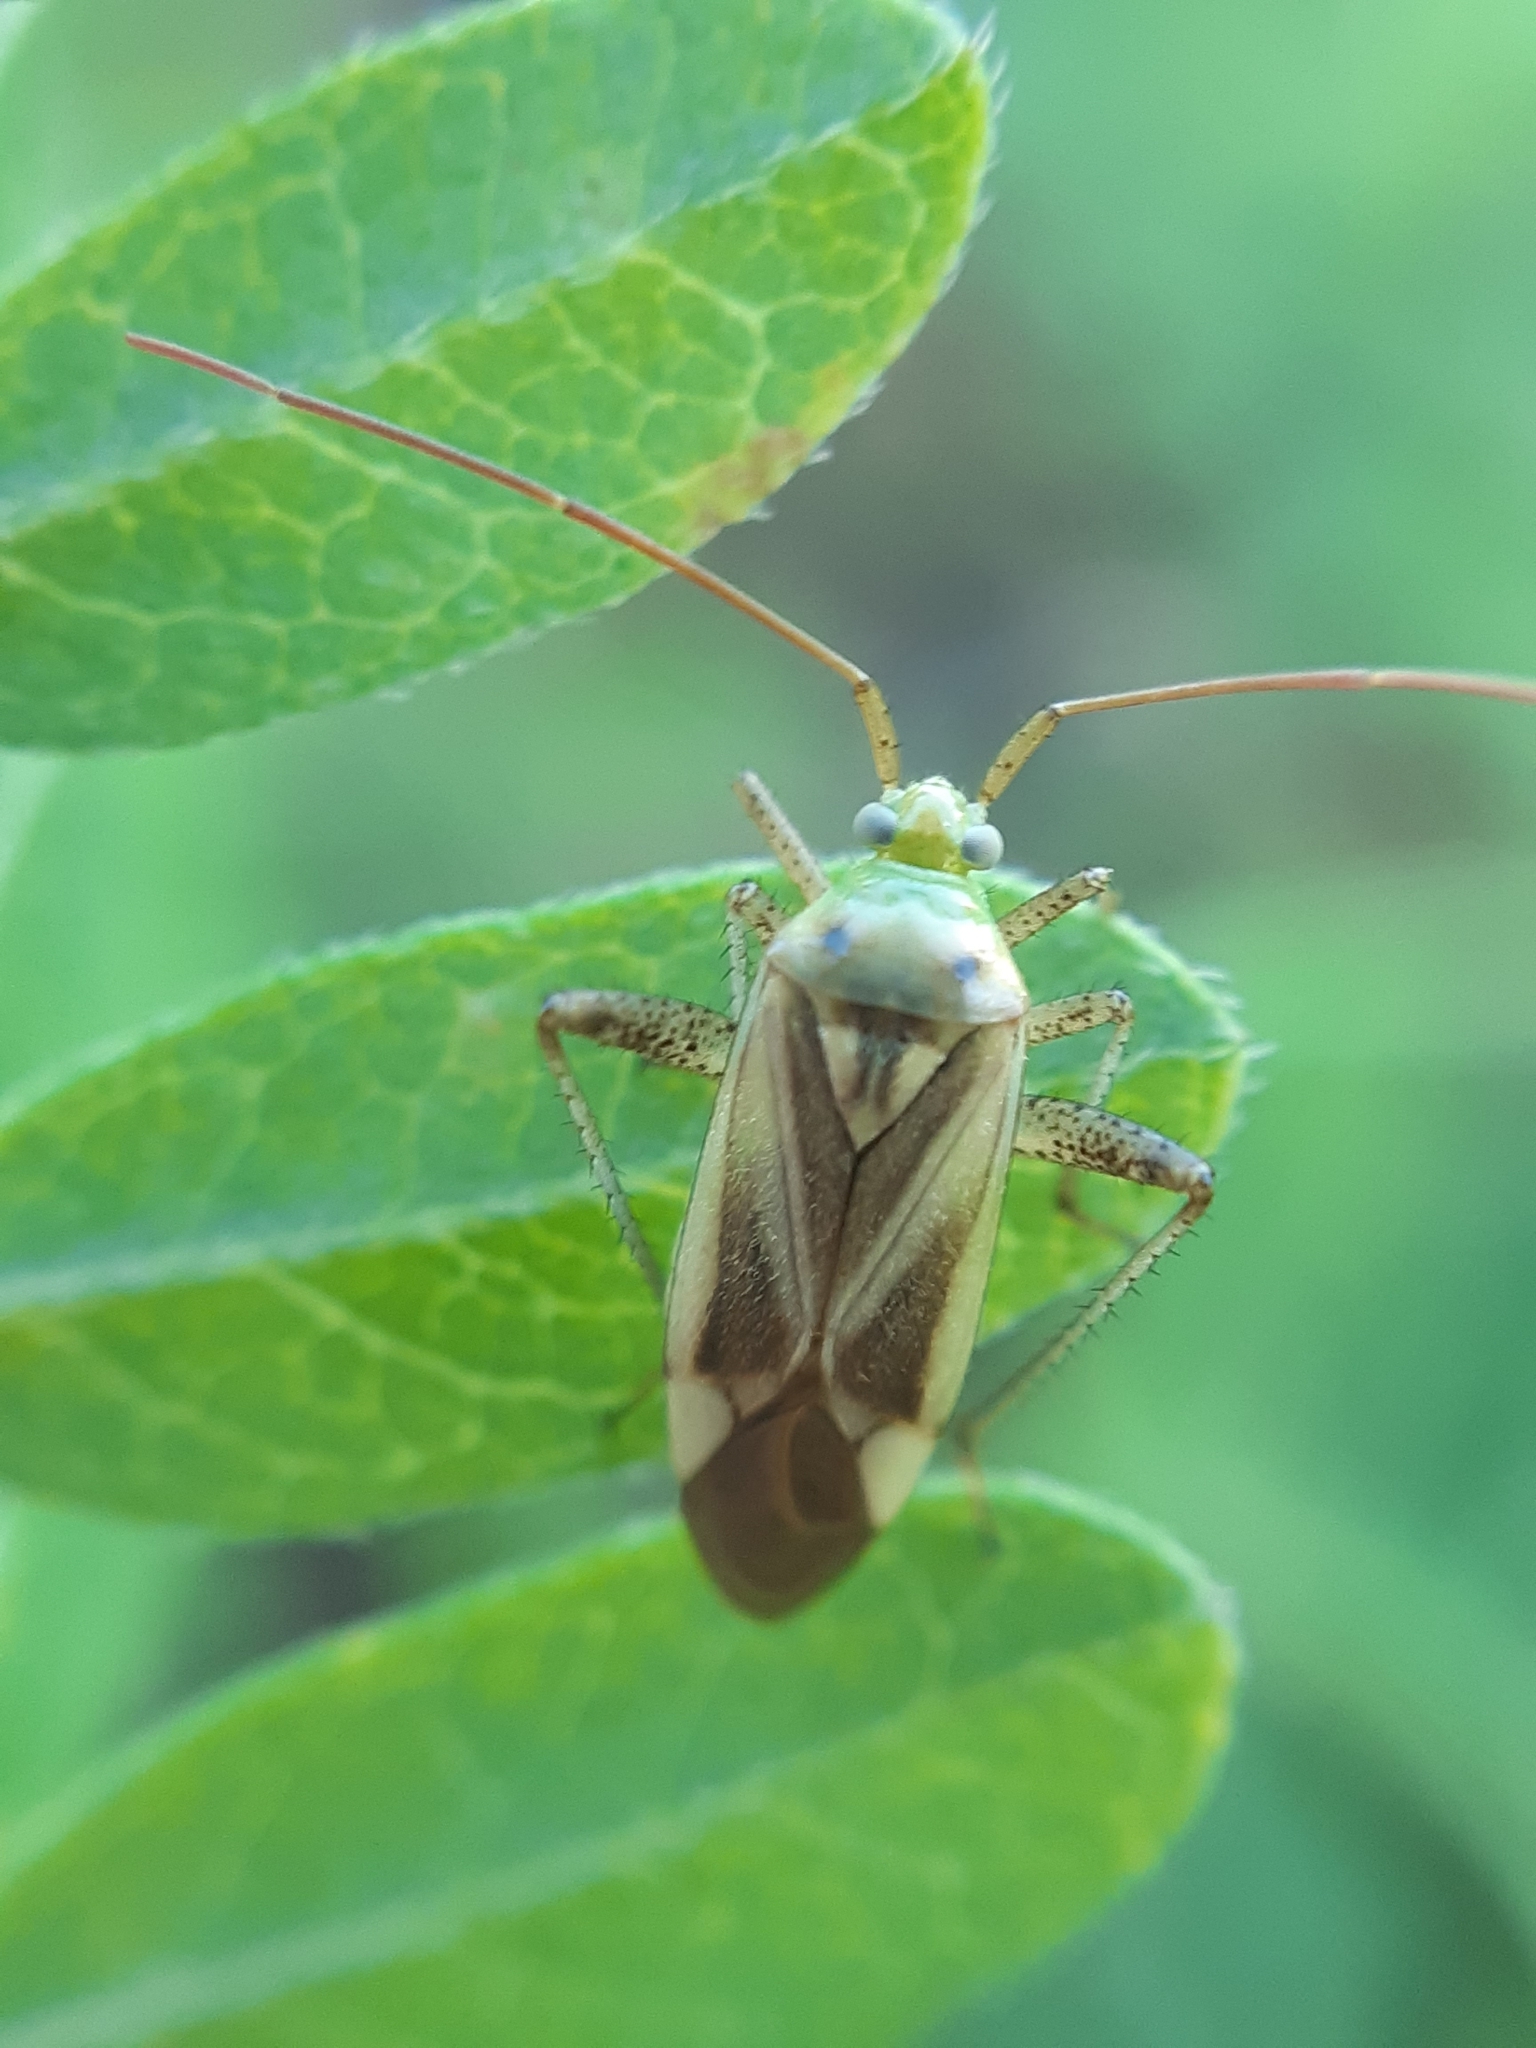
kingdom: Animalia
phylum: Arthropoda
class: Insecta
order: Hemiptera
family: Miridae
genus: Adelphocoris
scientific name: Adelphocoris lineolatus
